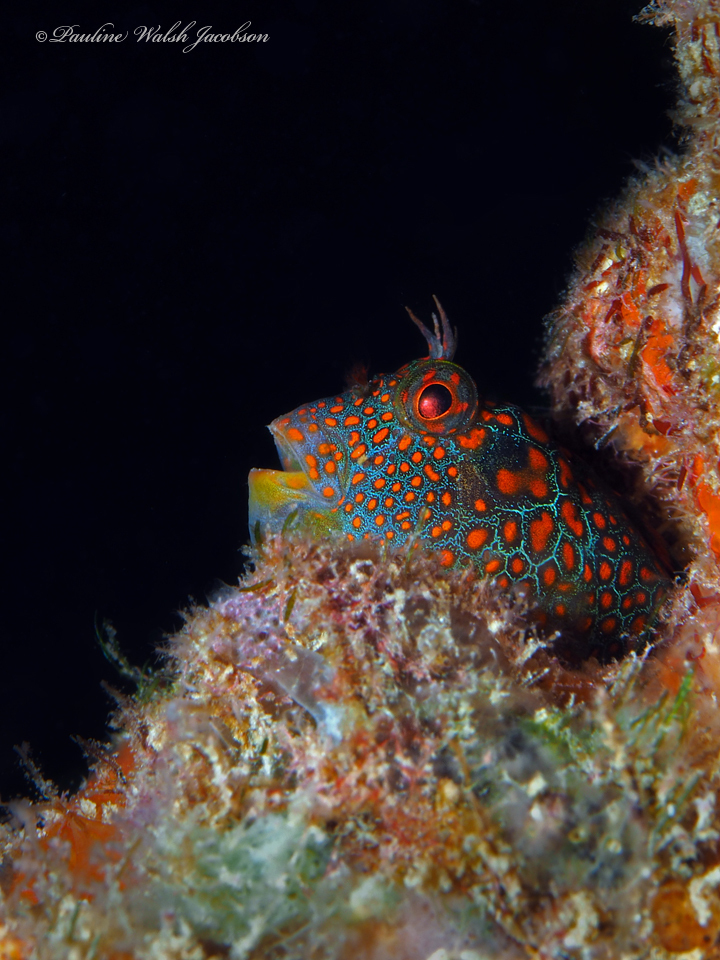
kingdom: Animalia
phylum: Chordata
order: Perciformes
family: Blenniidae
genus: Hypsoblennius
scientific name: Hypsoblennius invemar
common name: Tessellated blenny
